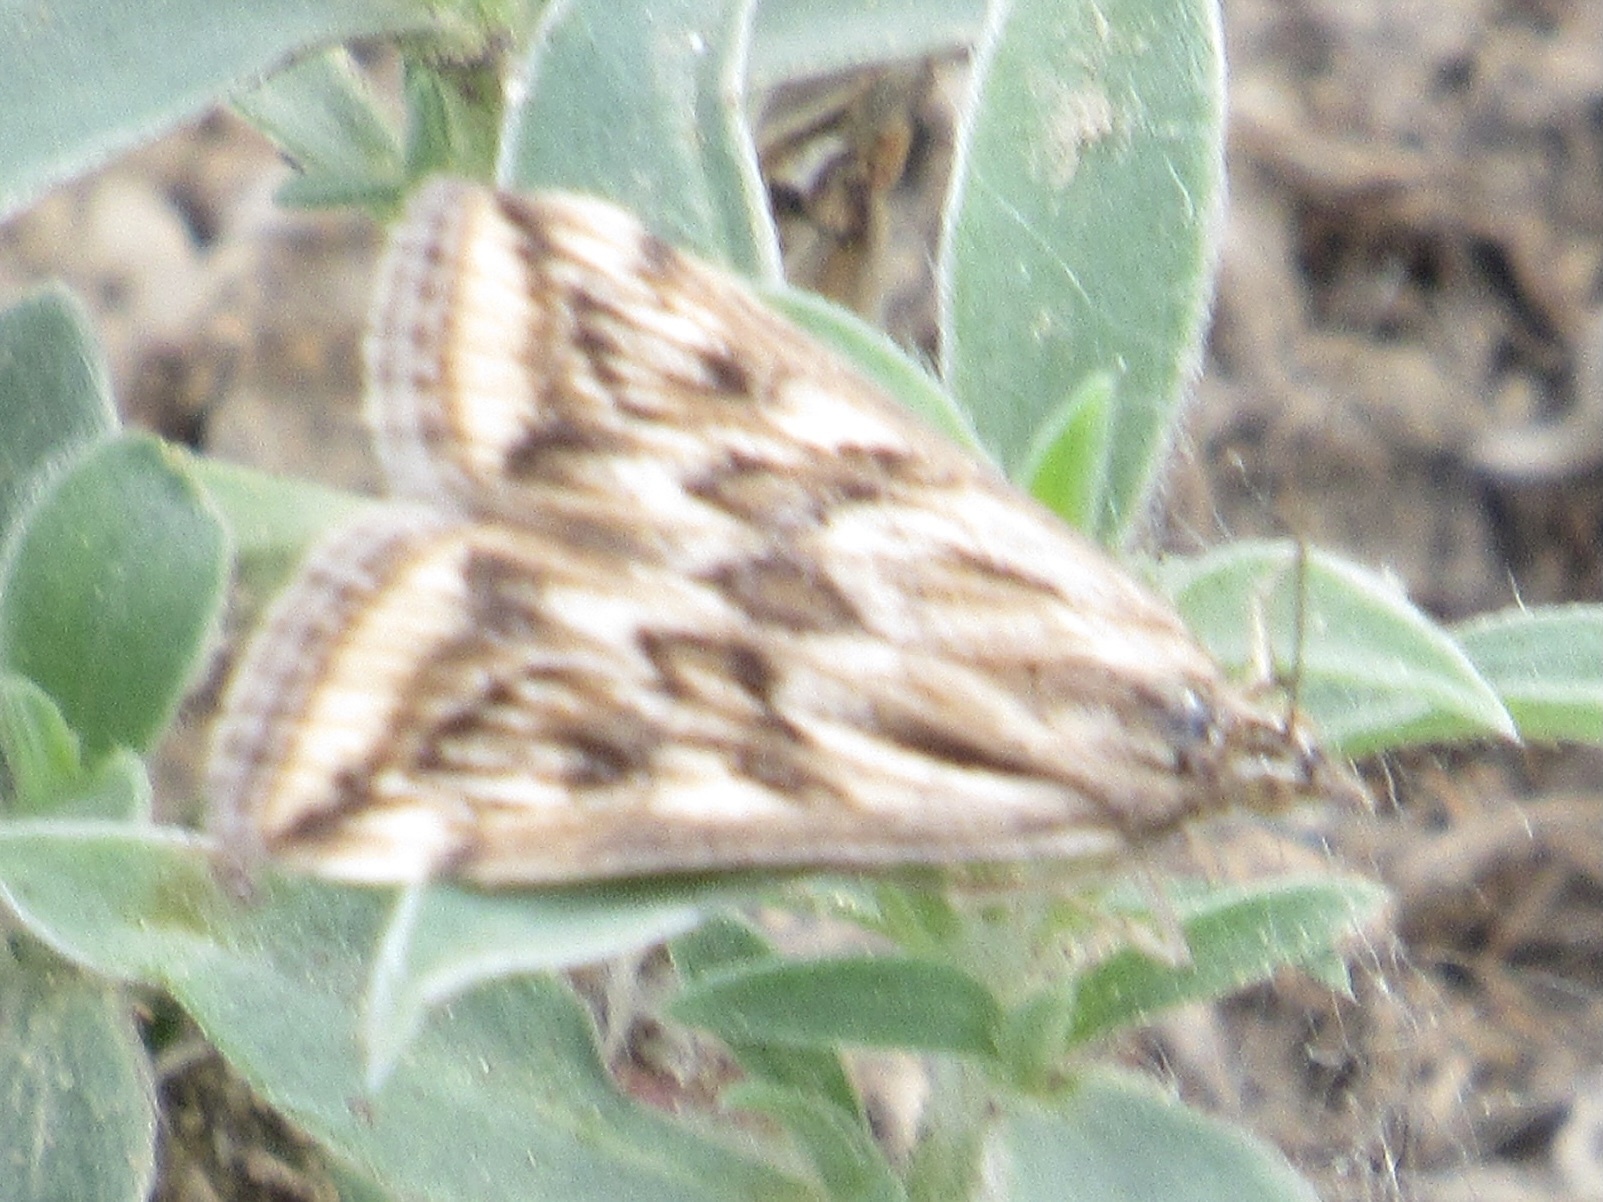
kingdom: Animalia
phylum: Arthropoda
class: Insecta
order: Lepidoptera
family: Crambidae
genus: Loxostege
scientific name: Loxostege cereralis
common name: Alfalfa webworm moth
